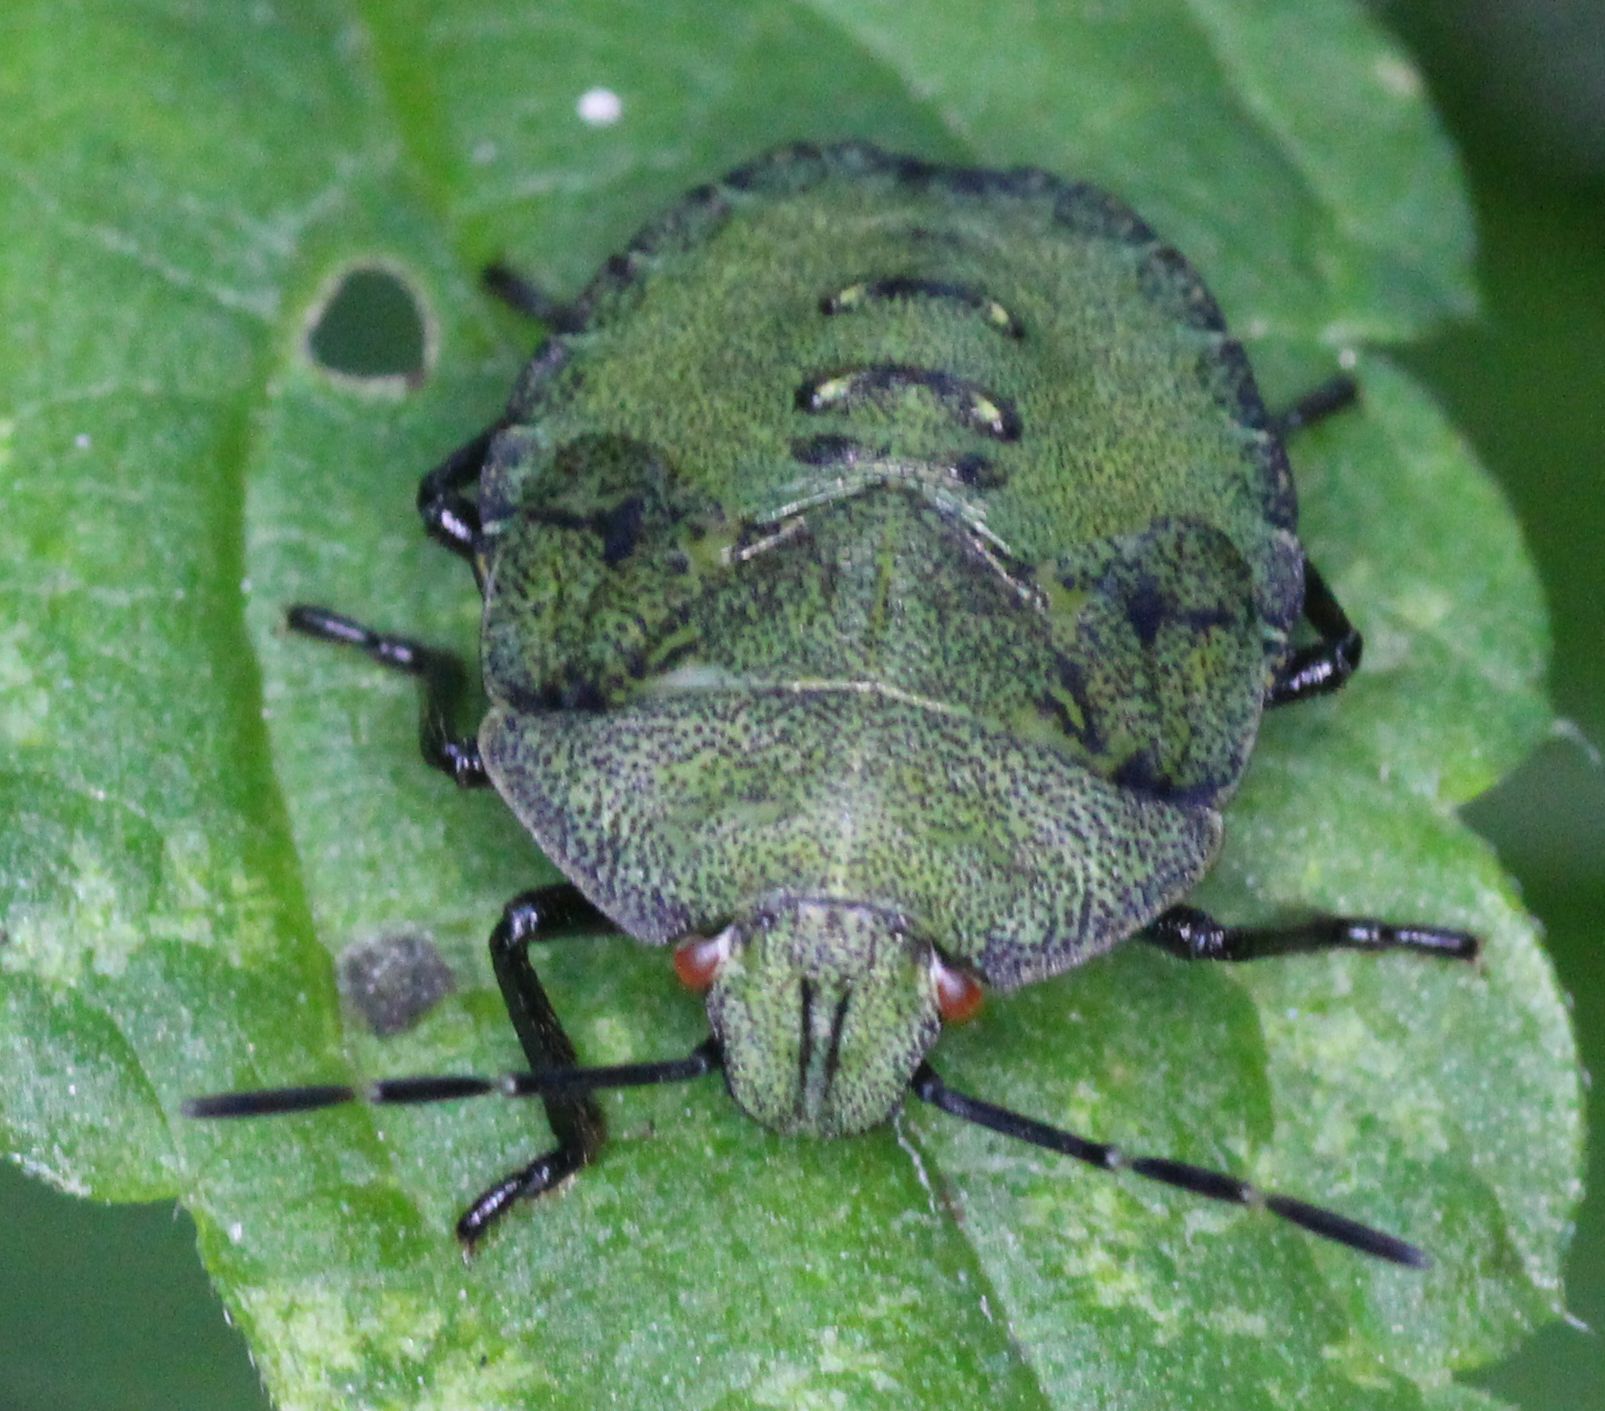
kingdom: Animalia
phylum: Arthropoda
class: Insecta
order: Hemiptera
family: Pentatomidae
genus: Palomena
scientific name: Palomena prasina
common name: Green shieldbug
